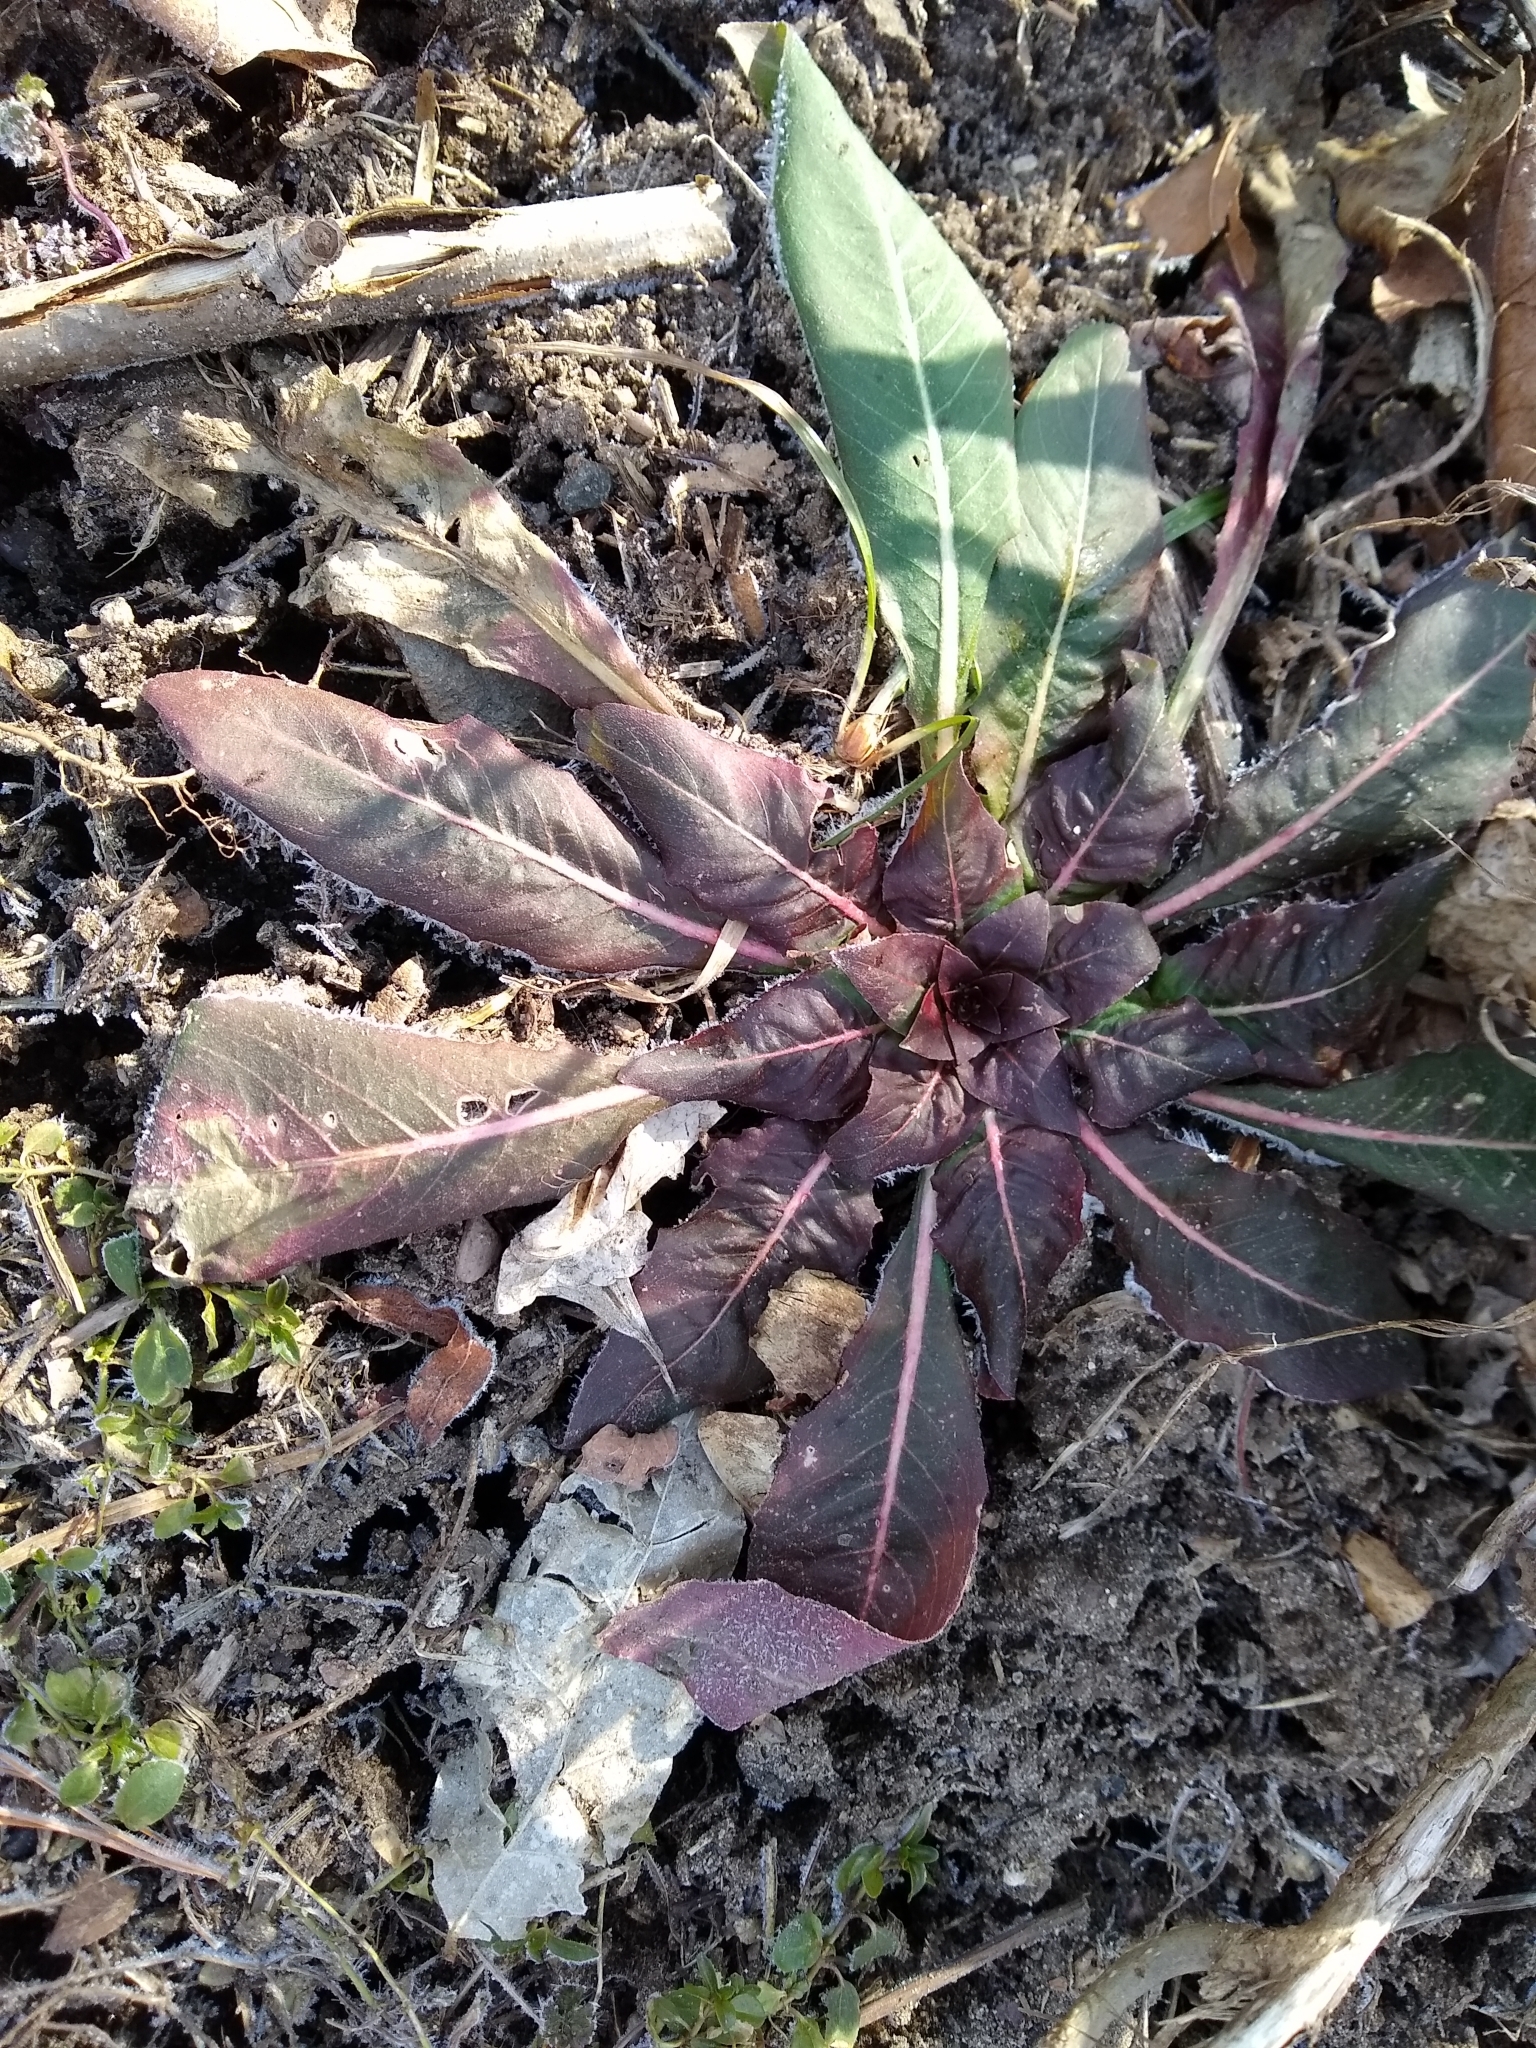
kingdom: Plantae
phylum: Tracheophyta
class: Magnoliopsida
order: Myrtales
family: Onagraceae
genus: Oenothera
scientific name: Oenothera
